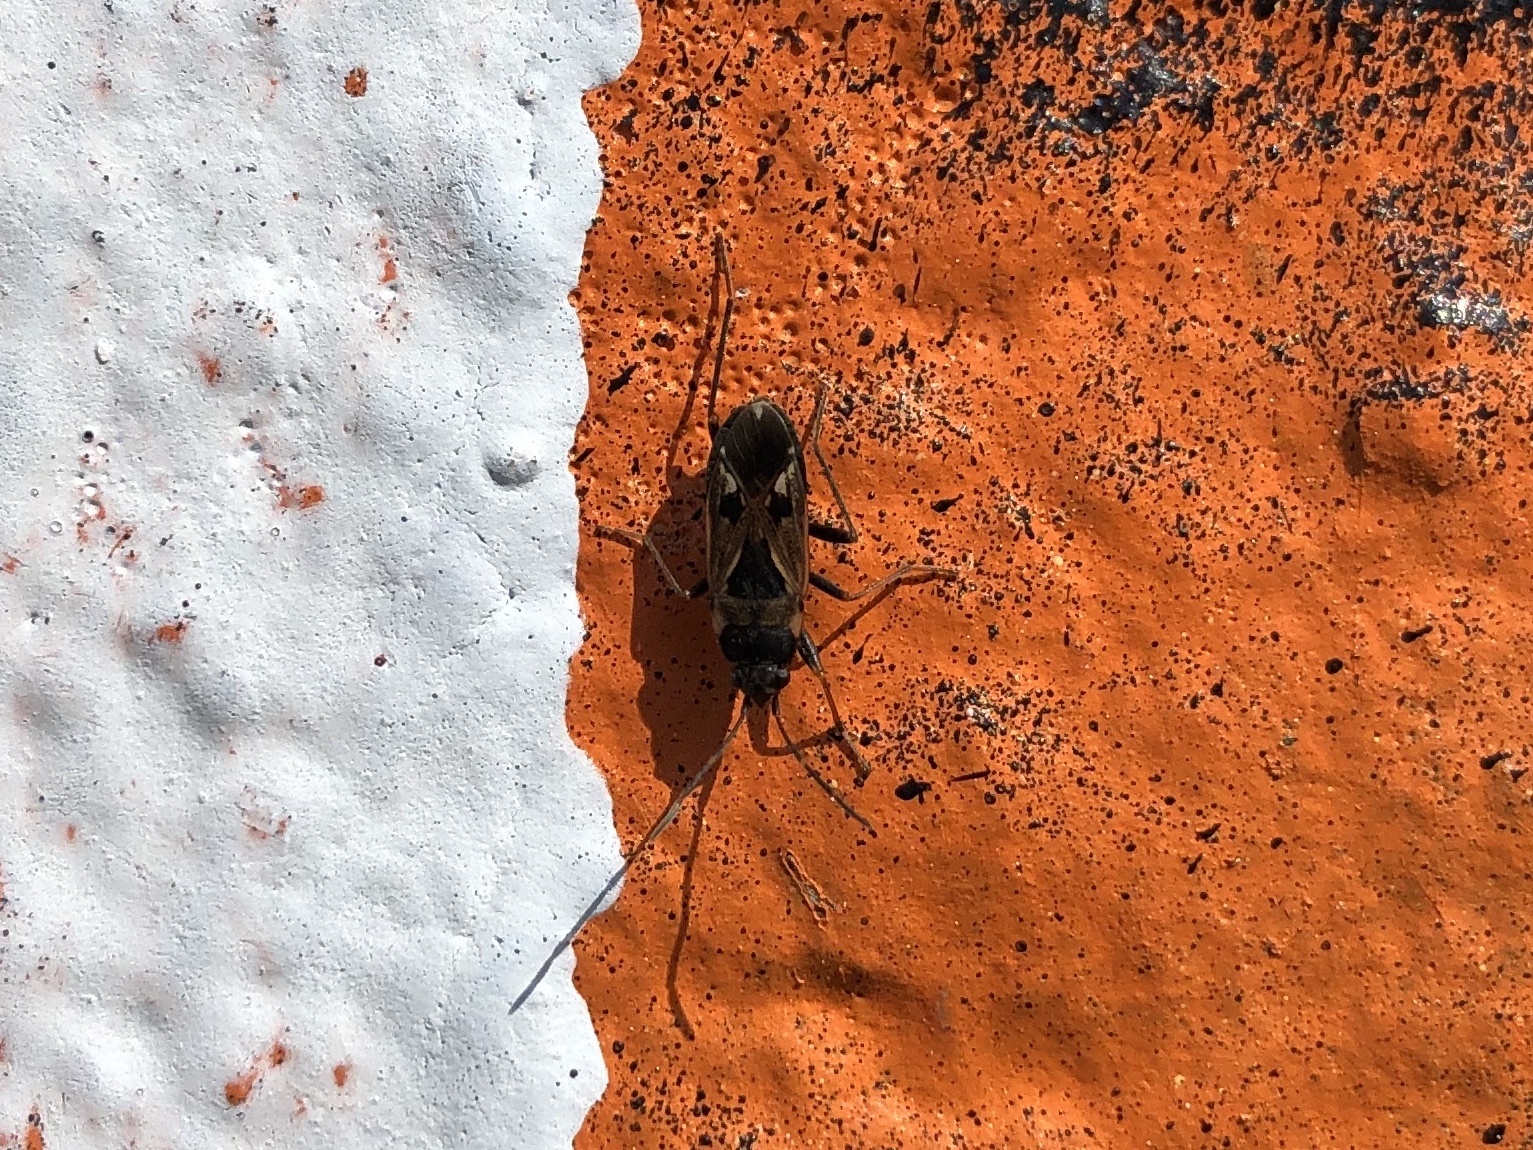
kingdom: Animalia
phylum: Arthropoda
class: Insecta
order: Hemiptera
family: Rhyparochromidae
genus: Rhyparochromus
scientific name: Rhyparochromus vulgaris
